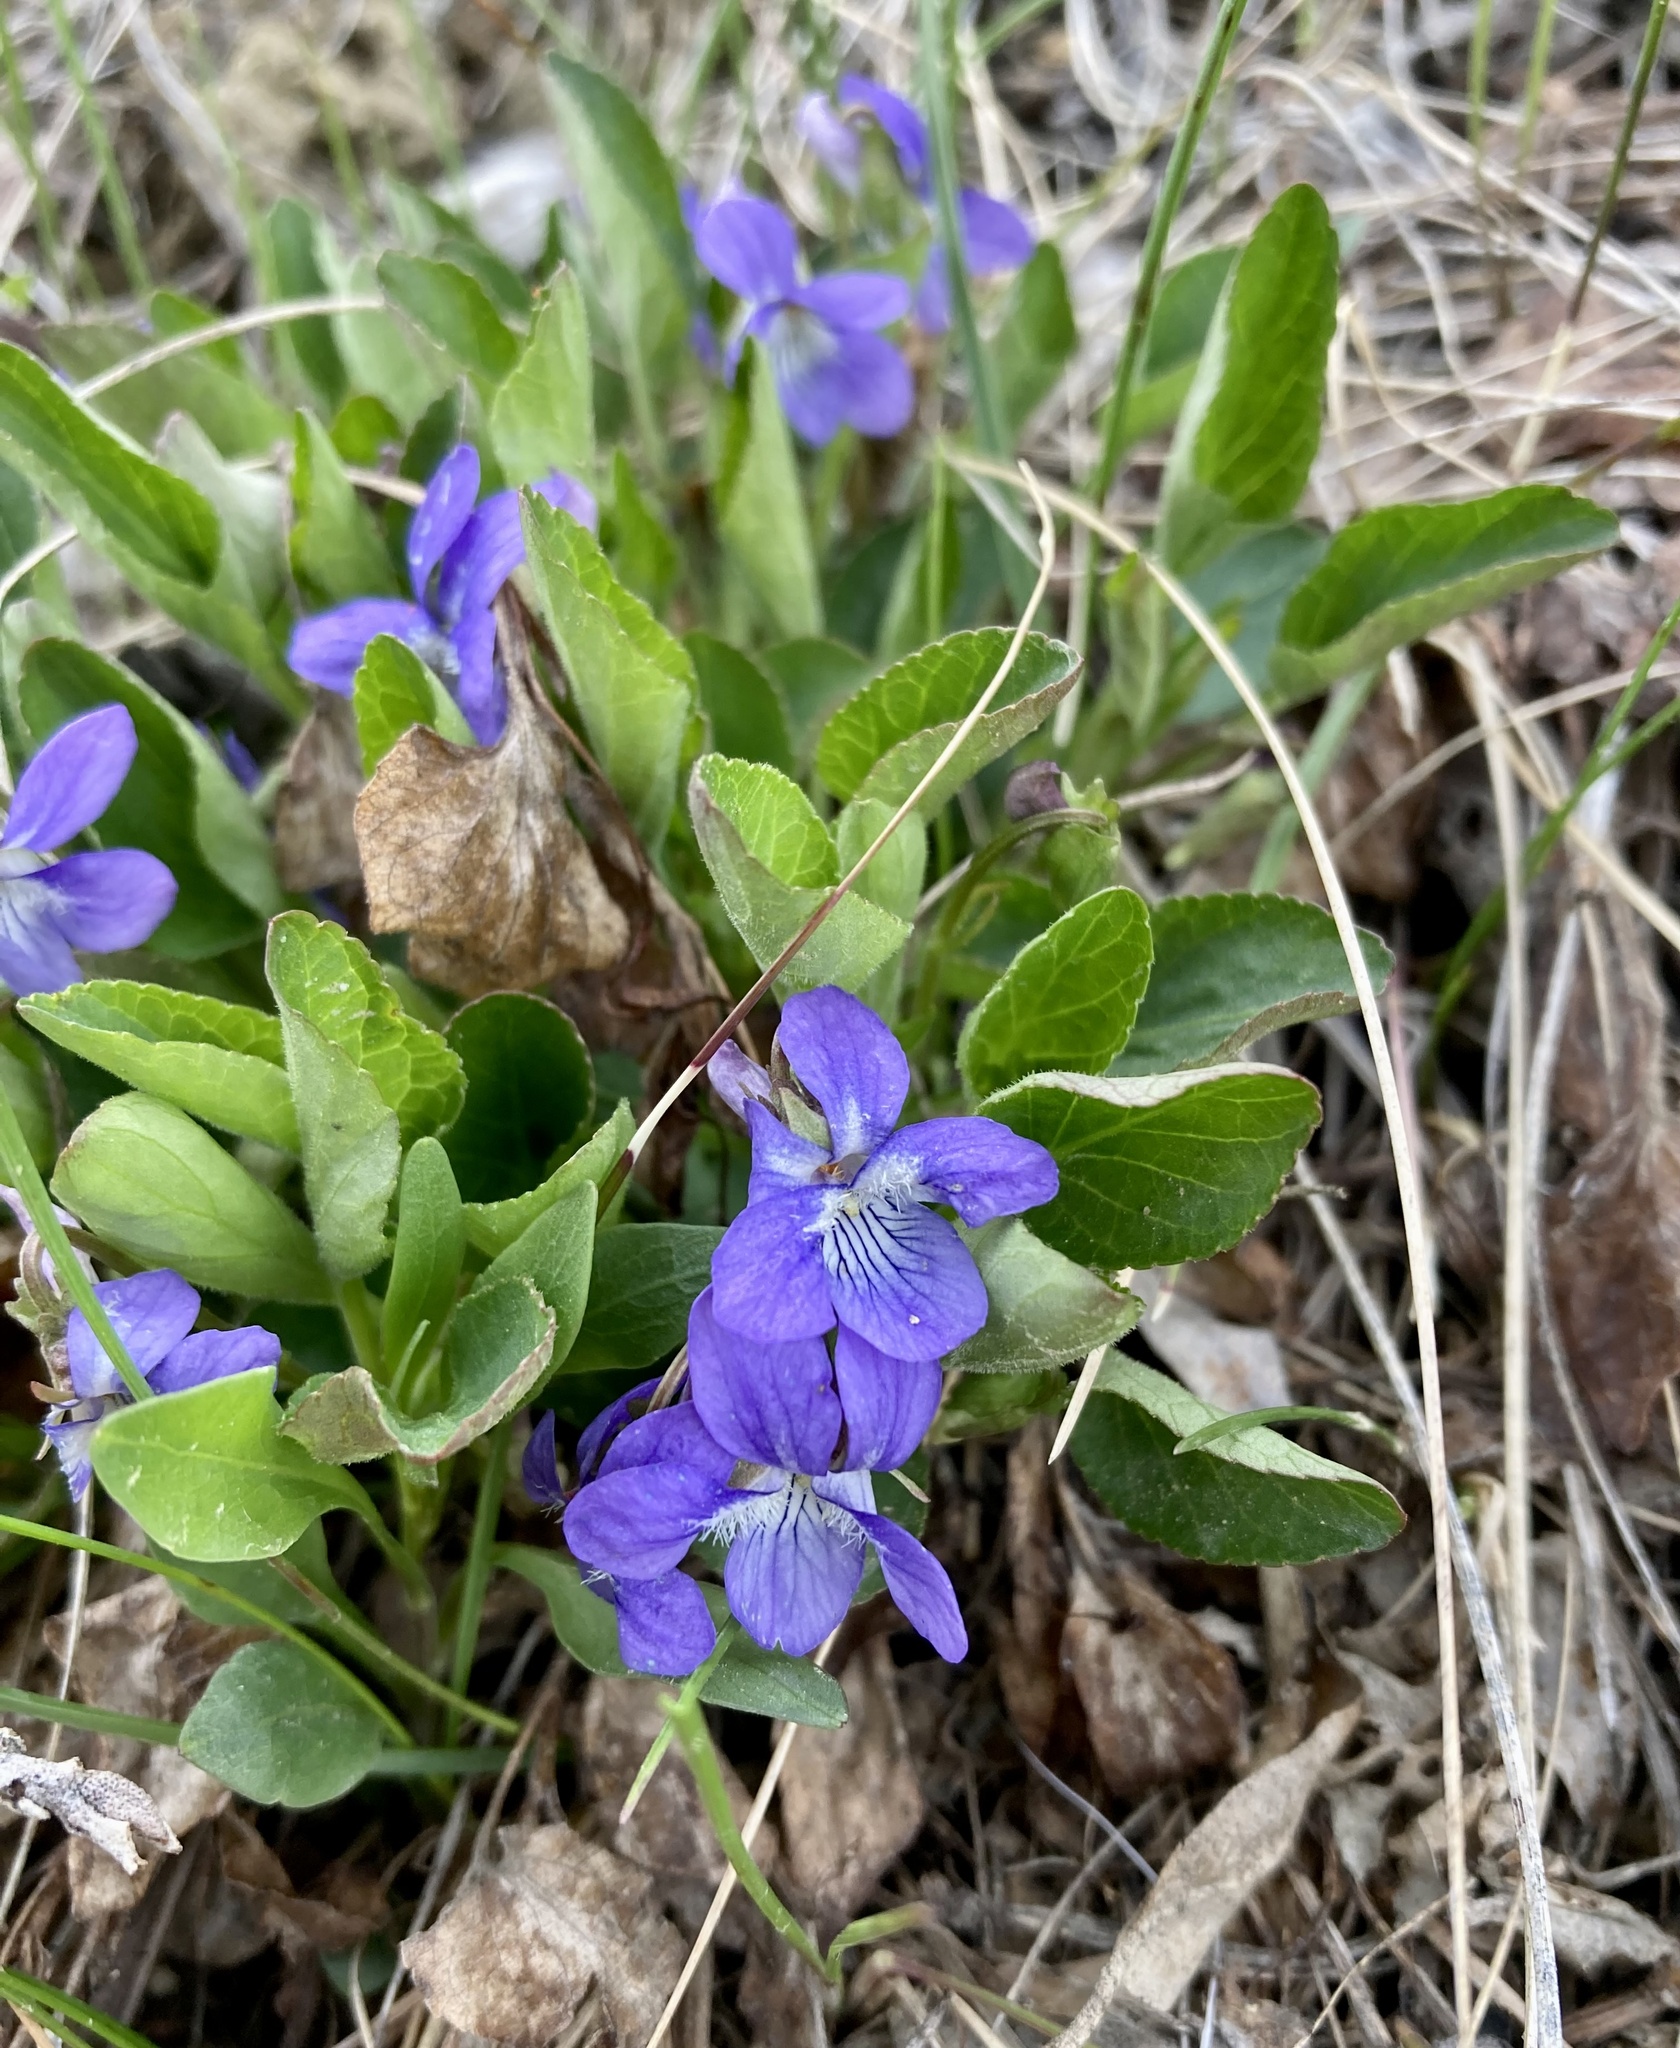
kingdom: Plantae
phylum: Tracheophyta
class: Magnoliopsida
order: Malpighiales
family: Violaceae
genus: Viola
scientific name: Viola adunca
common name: Sand violet
